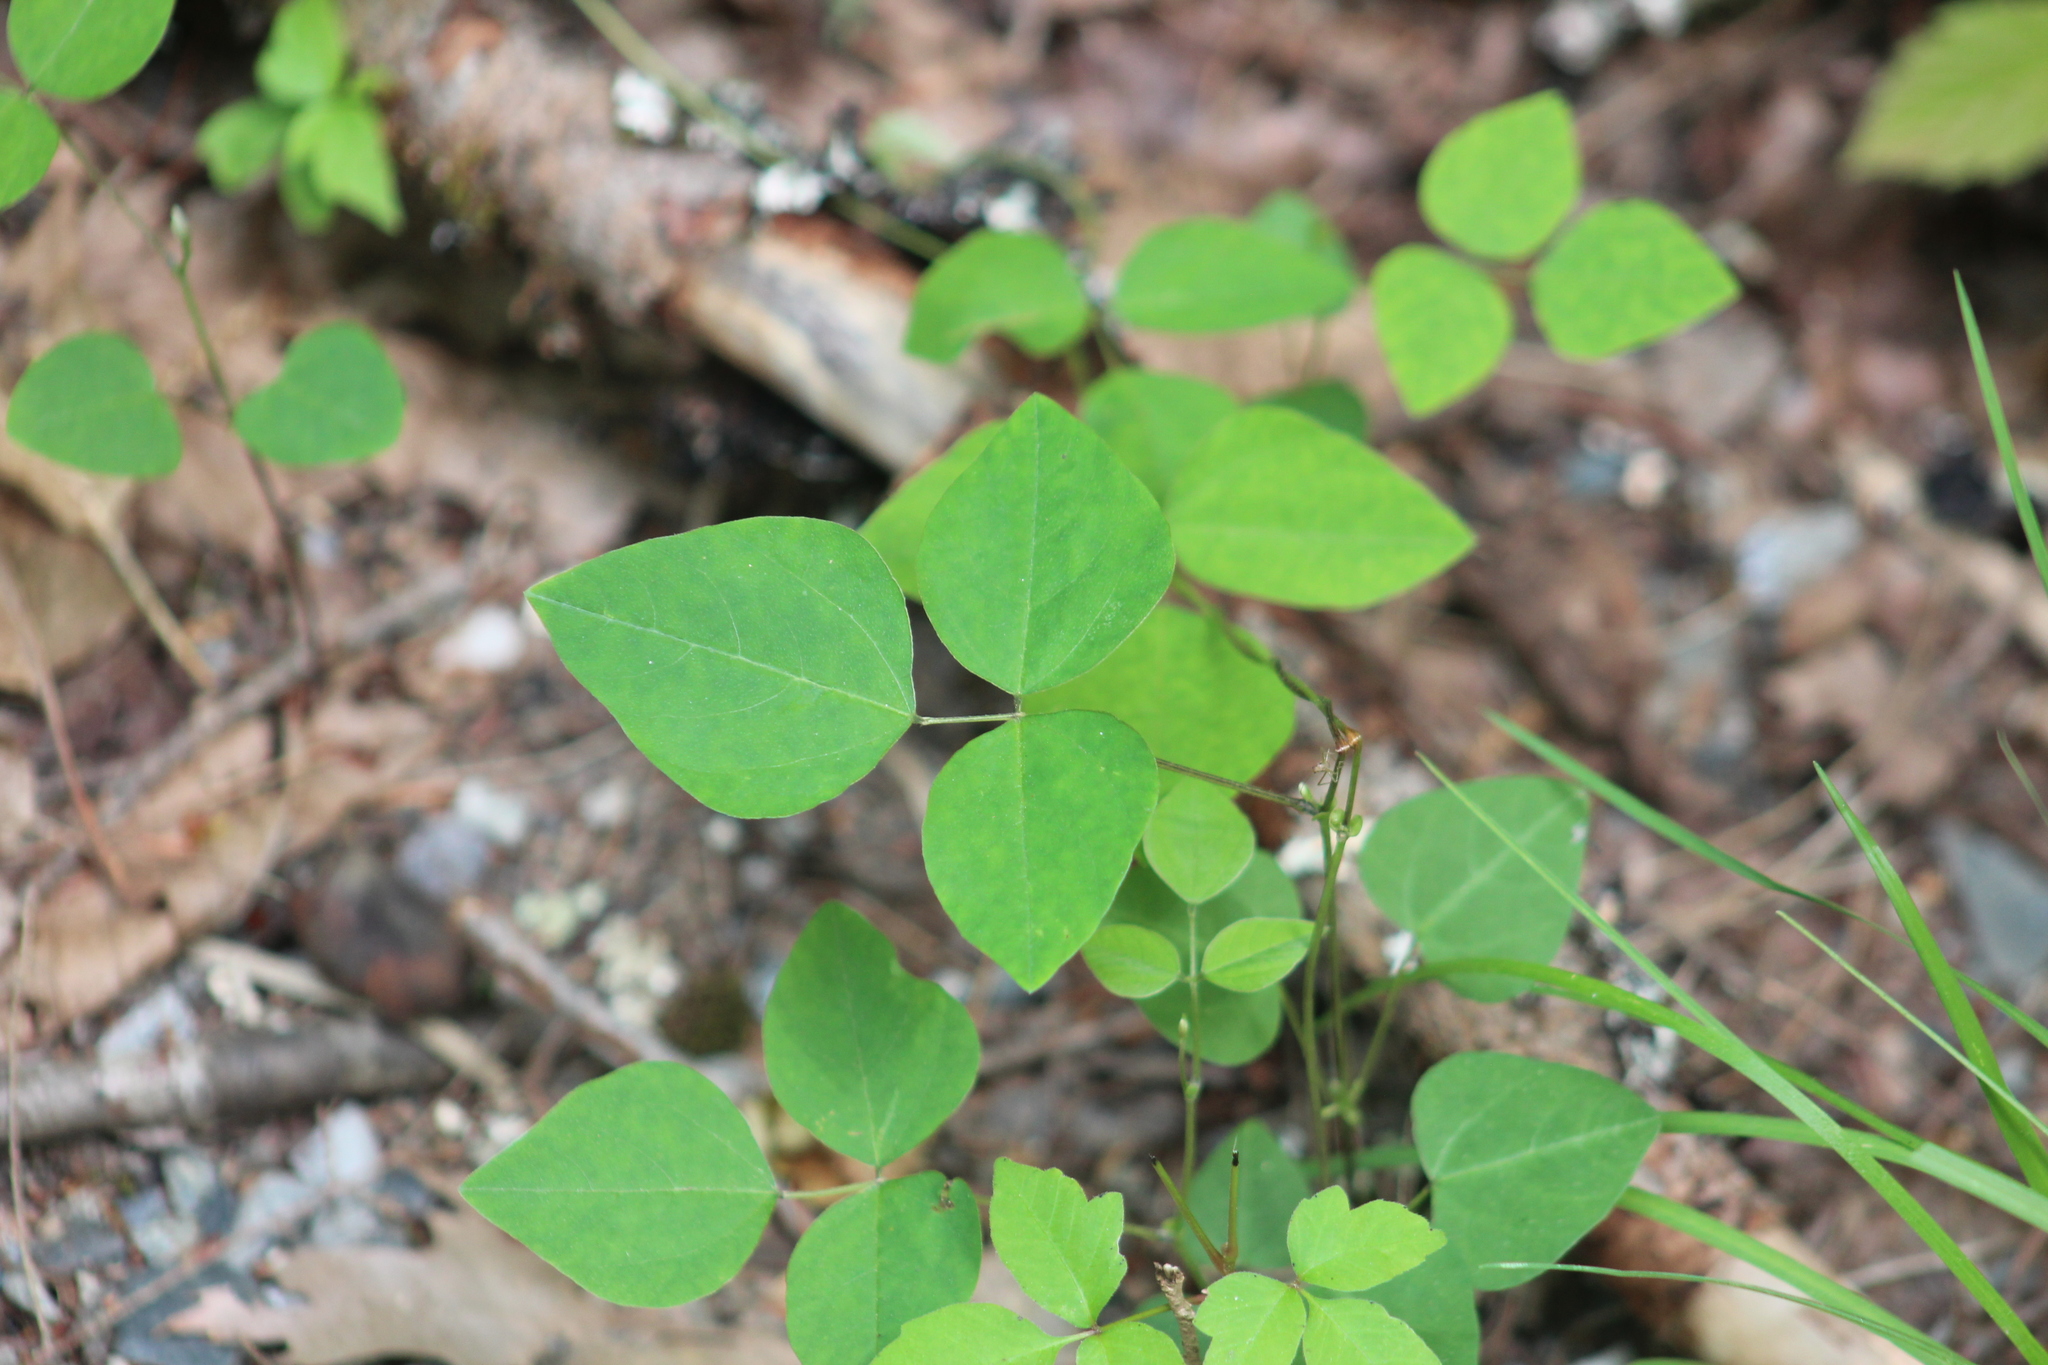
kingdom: Plantae
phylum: Tracheophyta
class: Magnoliopsida
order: Fabales
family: Fabaceae
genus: Amphicarpaea
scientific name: Amphicarpaea bracteata
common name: American hog peanut
